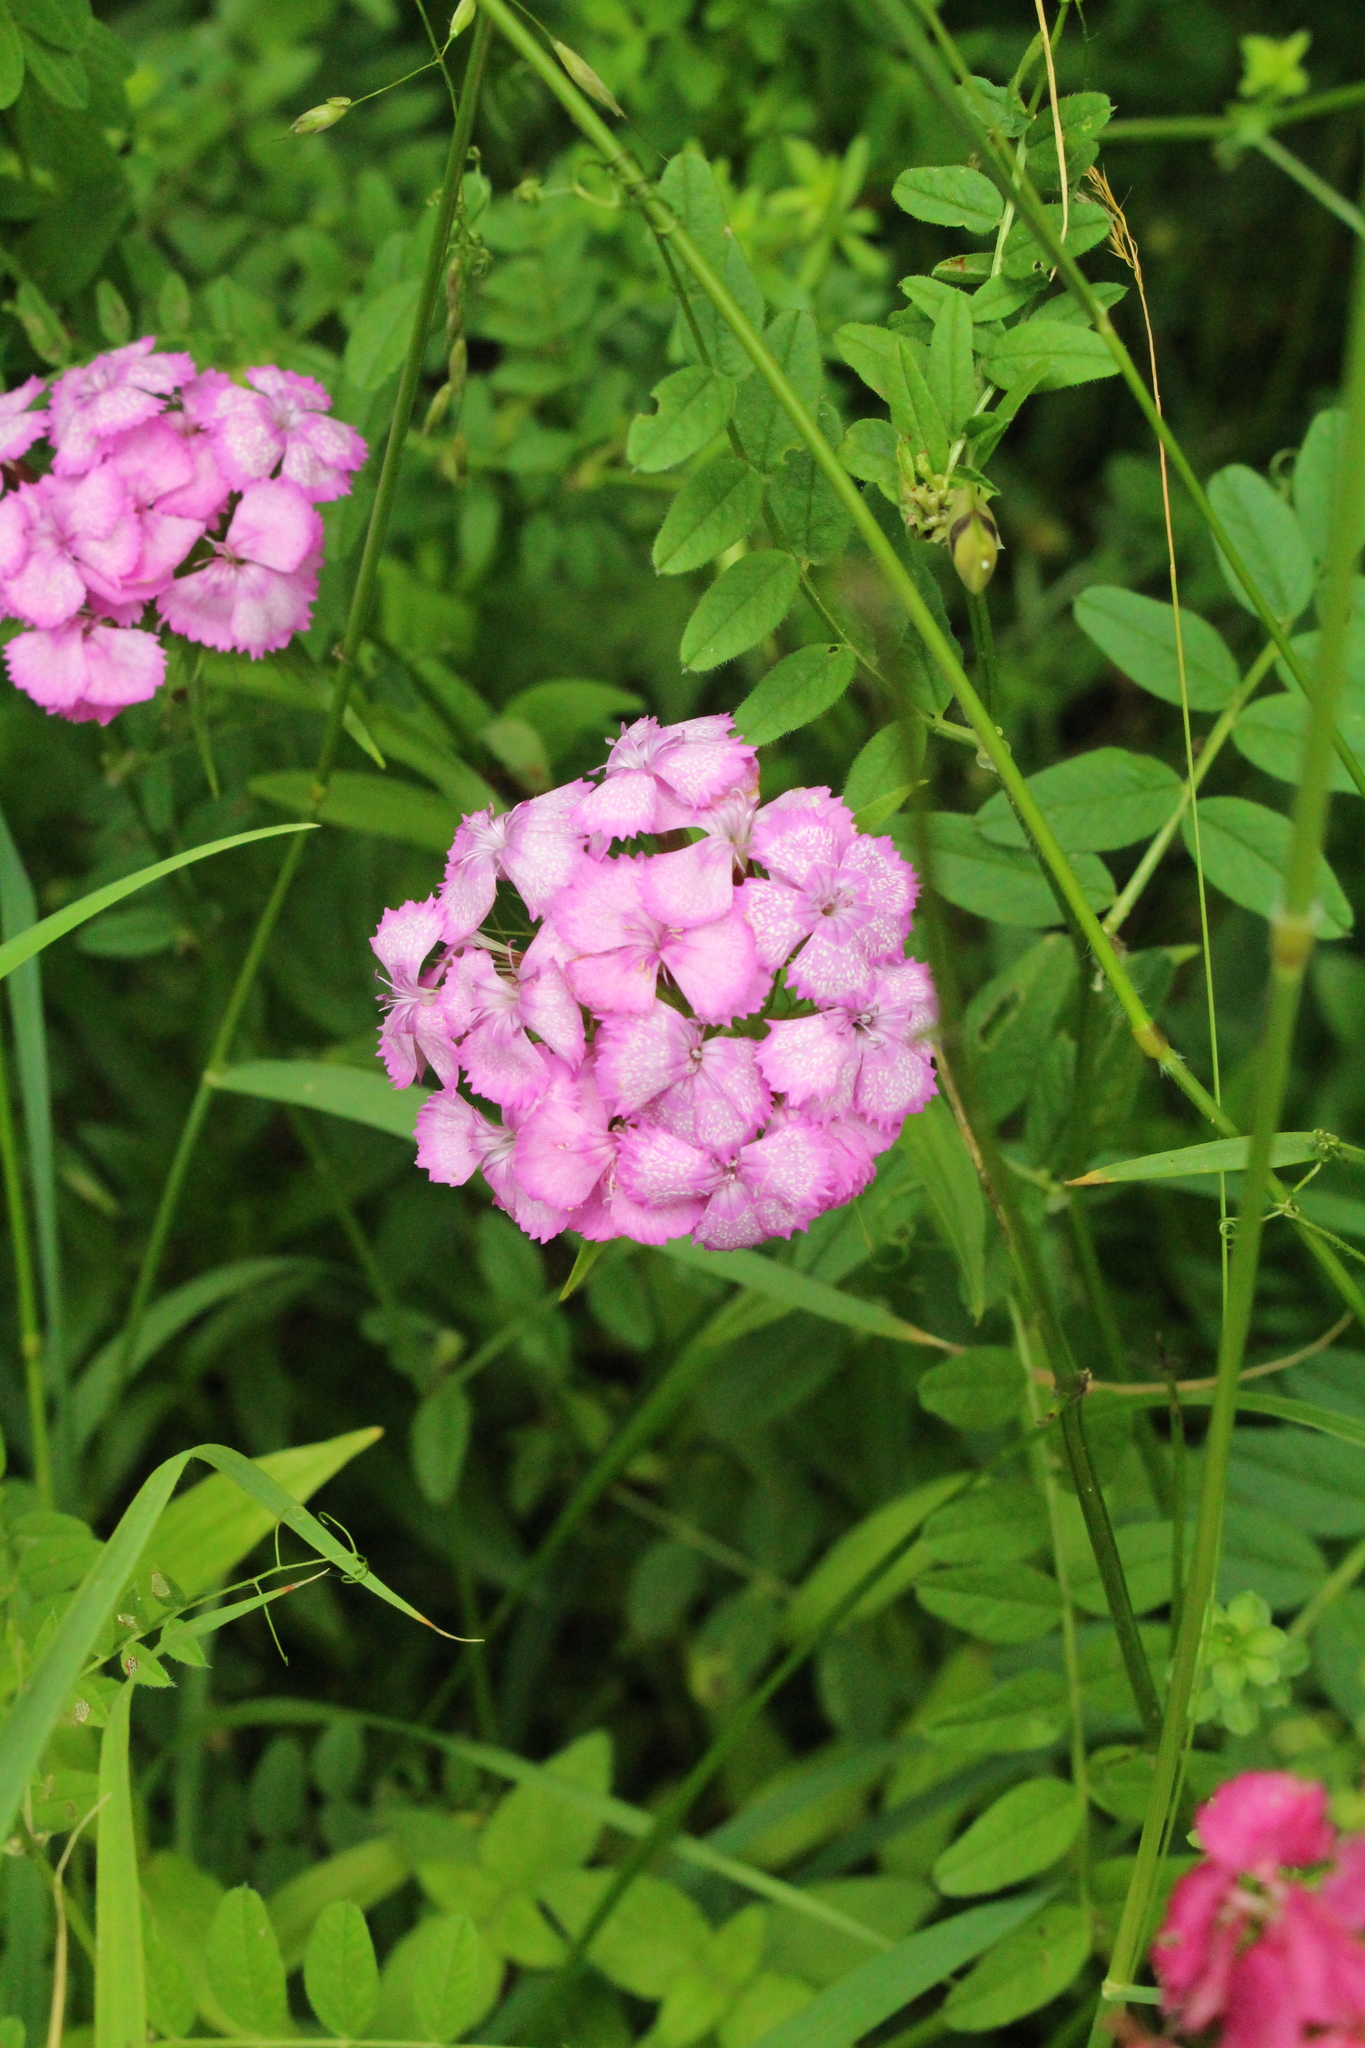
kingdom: Plantae
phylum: Tracheophyta
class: Magnoliopsida
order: Caryophyllales
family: Caryophyllaceae
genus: Dianthus
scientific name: Dianthus barbatus
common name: Sweet-william
